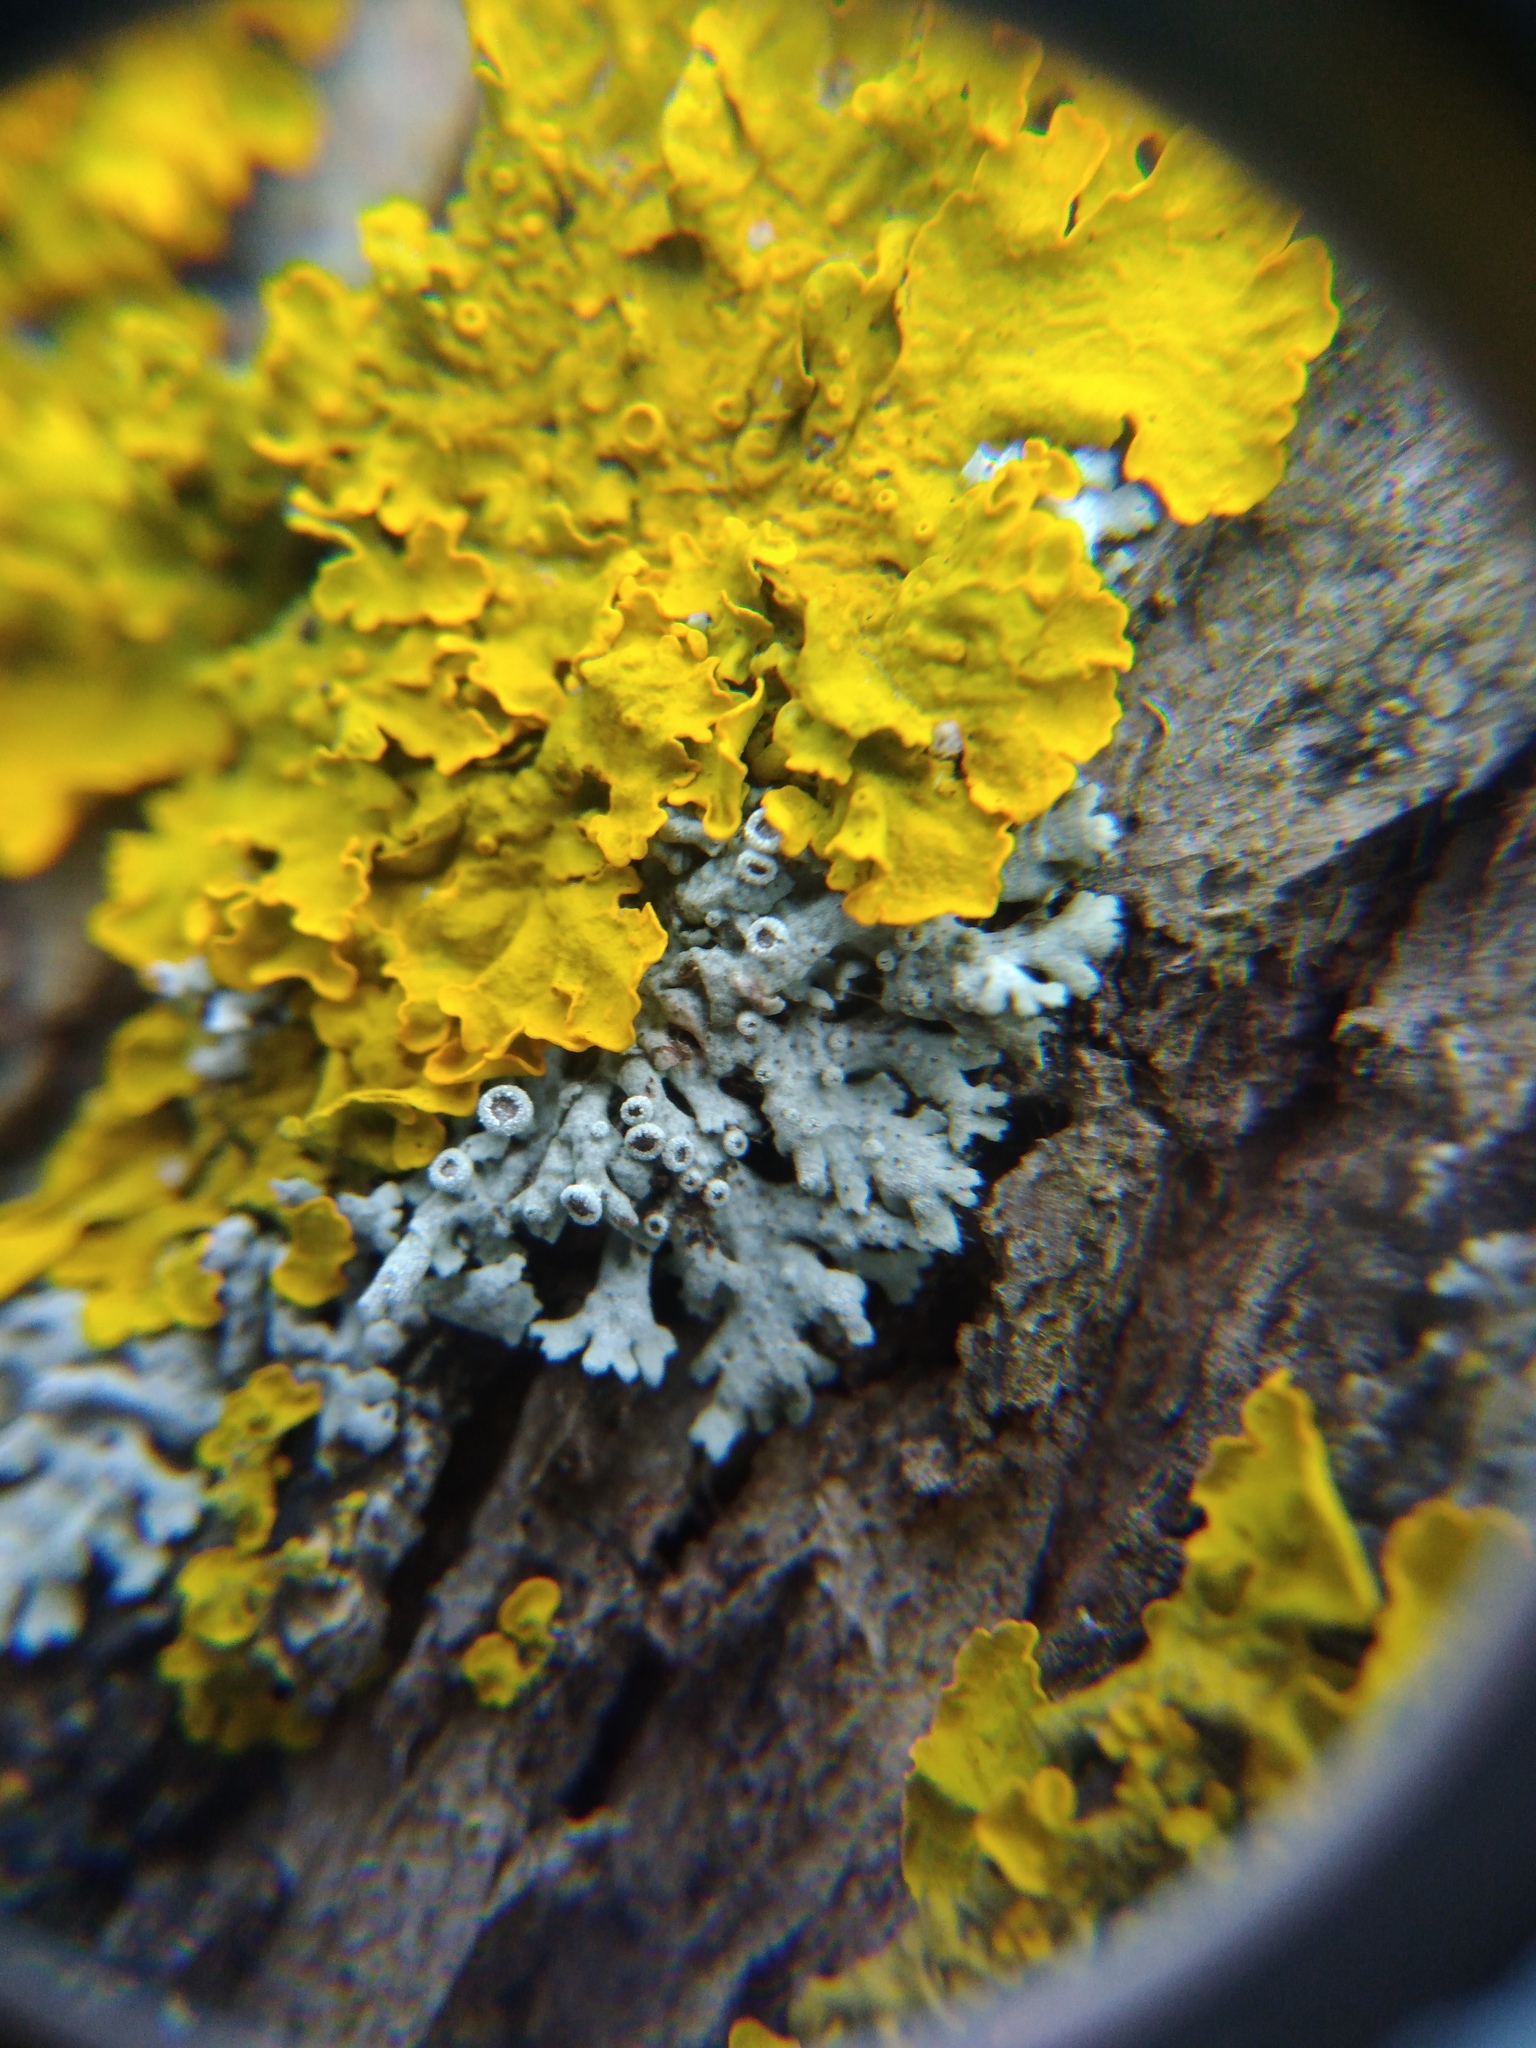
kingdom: Fungi
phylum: Ascomycota
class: Lecanoromycetes
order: Caliciales
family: Physciaceae
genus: Physcia
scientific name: Physcia stellaris
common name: Star rosette lichen
